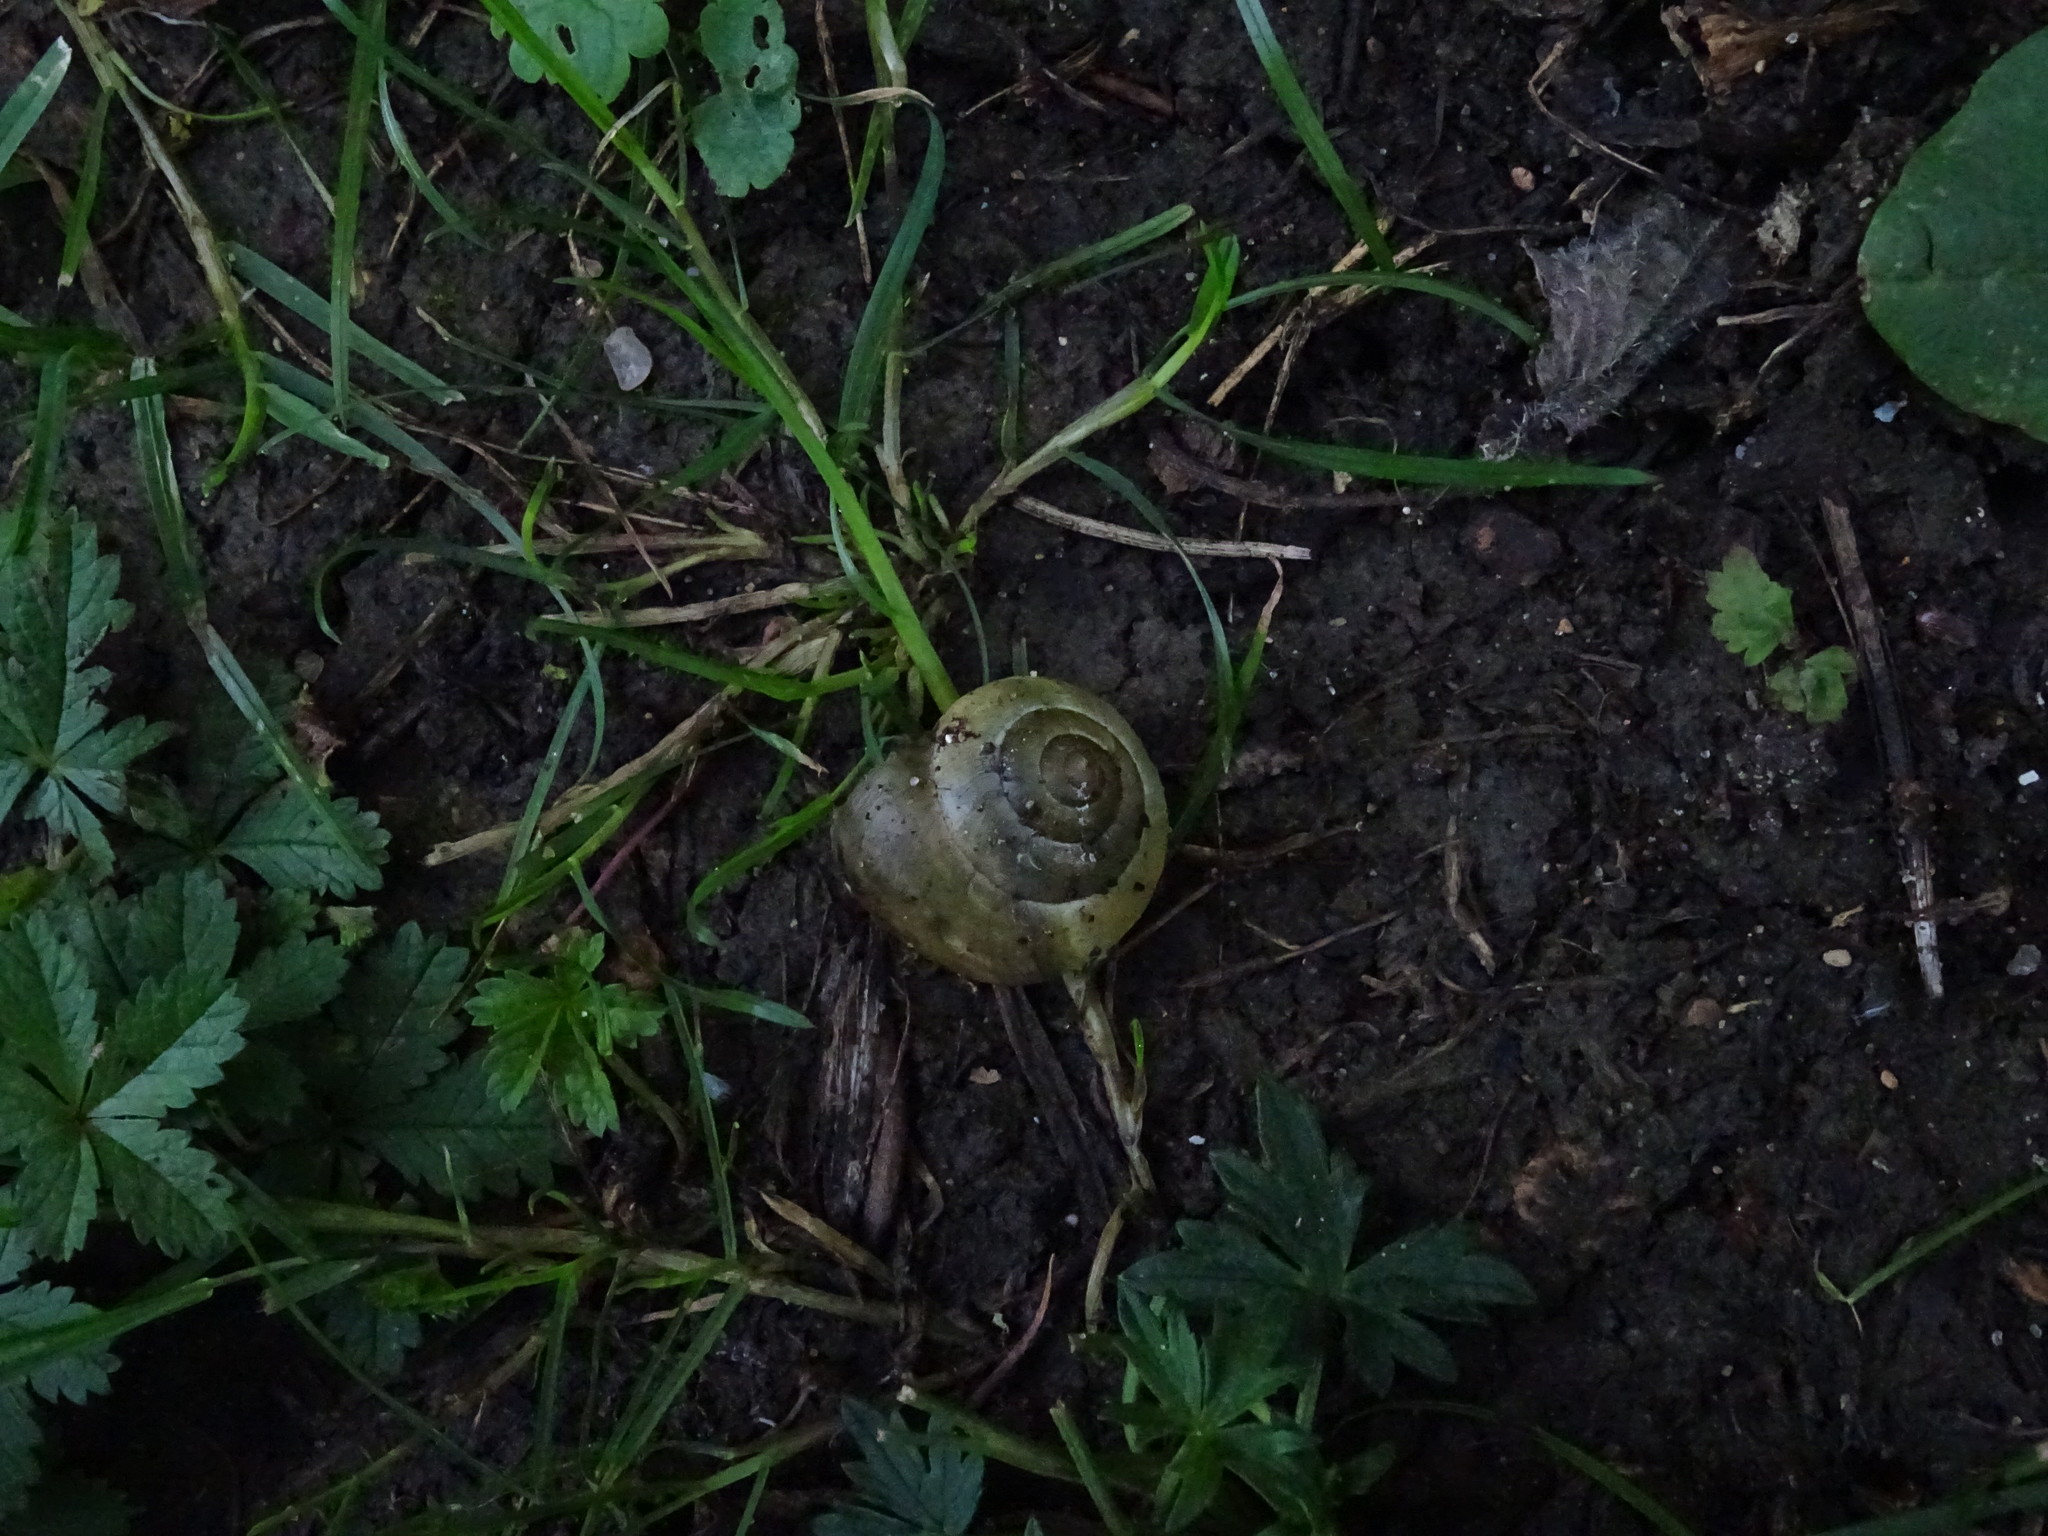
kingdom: Animalia
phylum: Mollusca
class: Gastropoda
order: Stylommatophora
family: Helicidae
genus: Cepaea
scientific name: Cepaea
